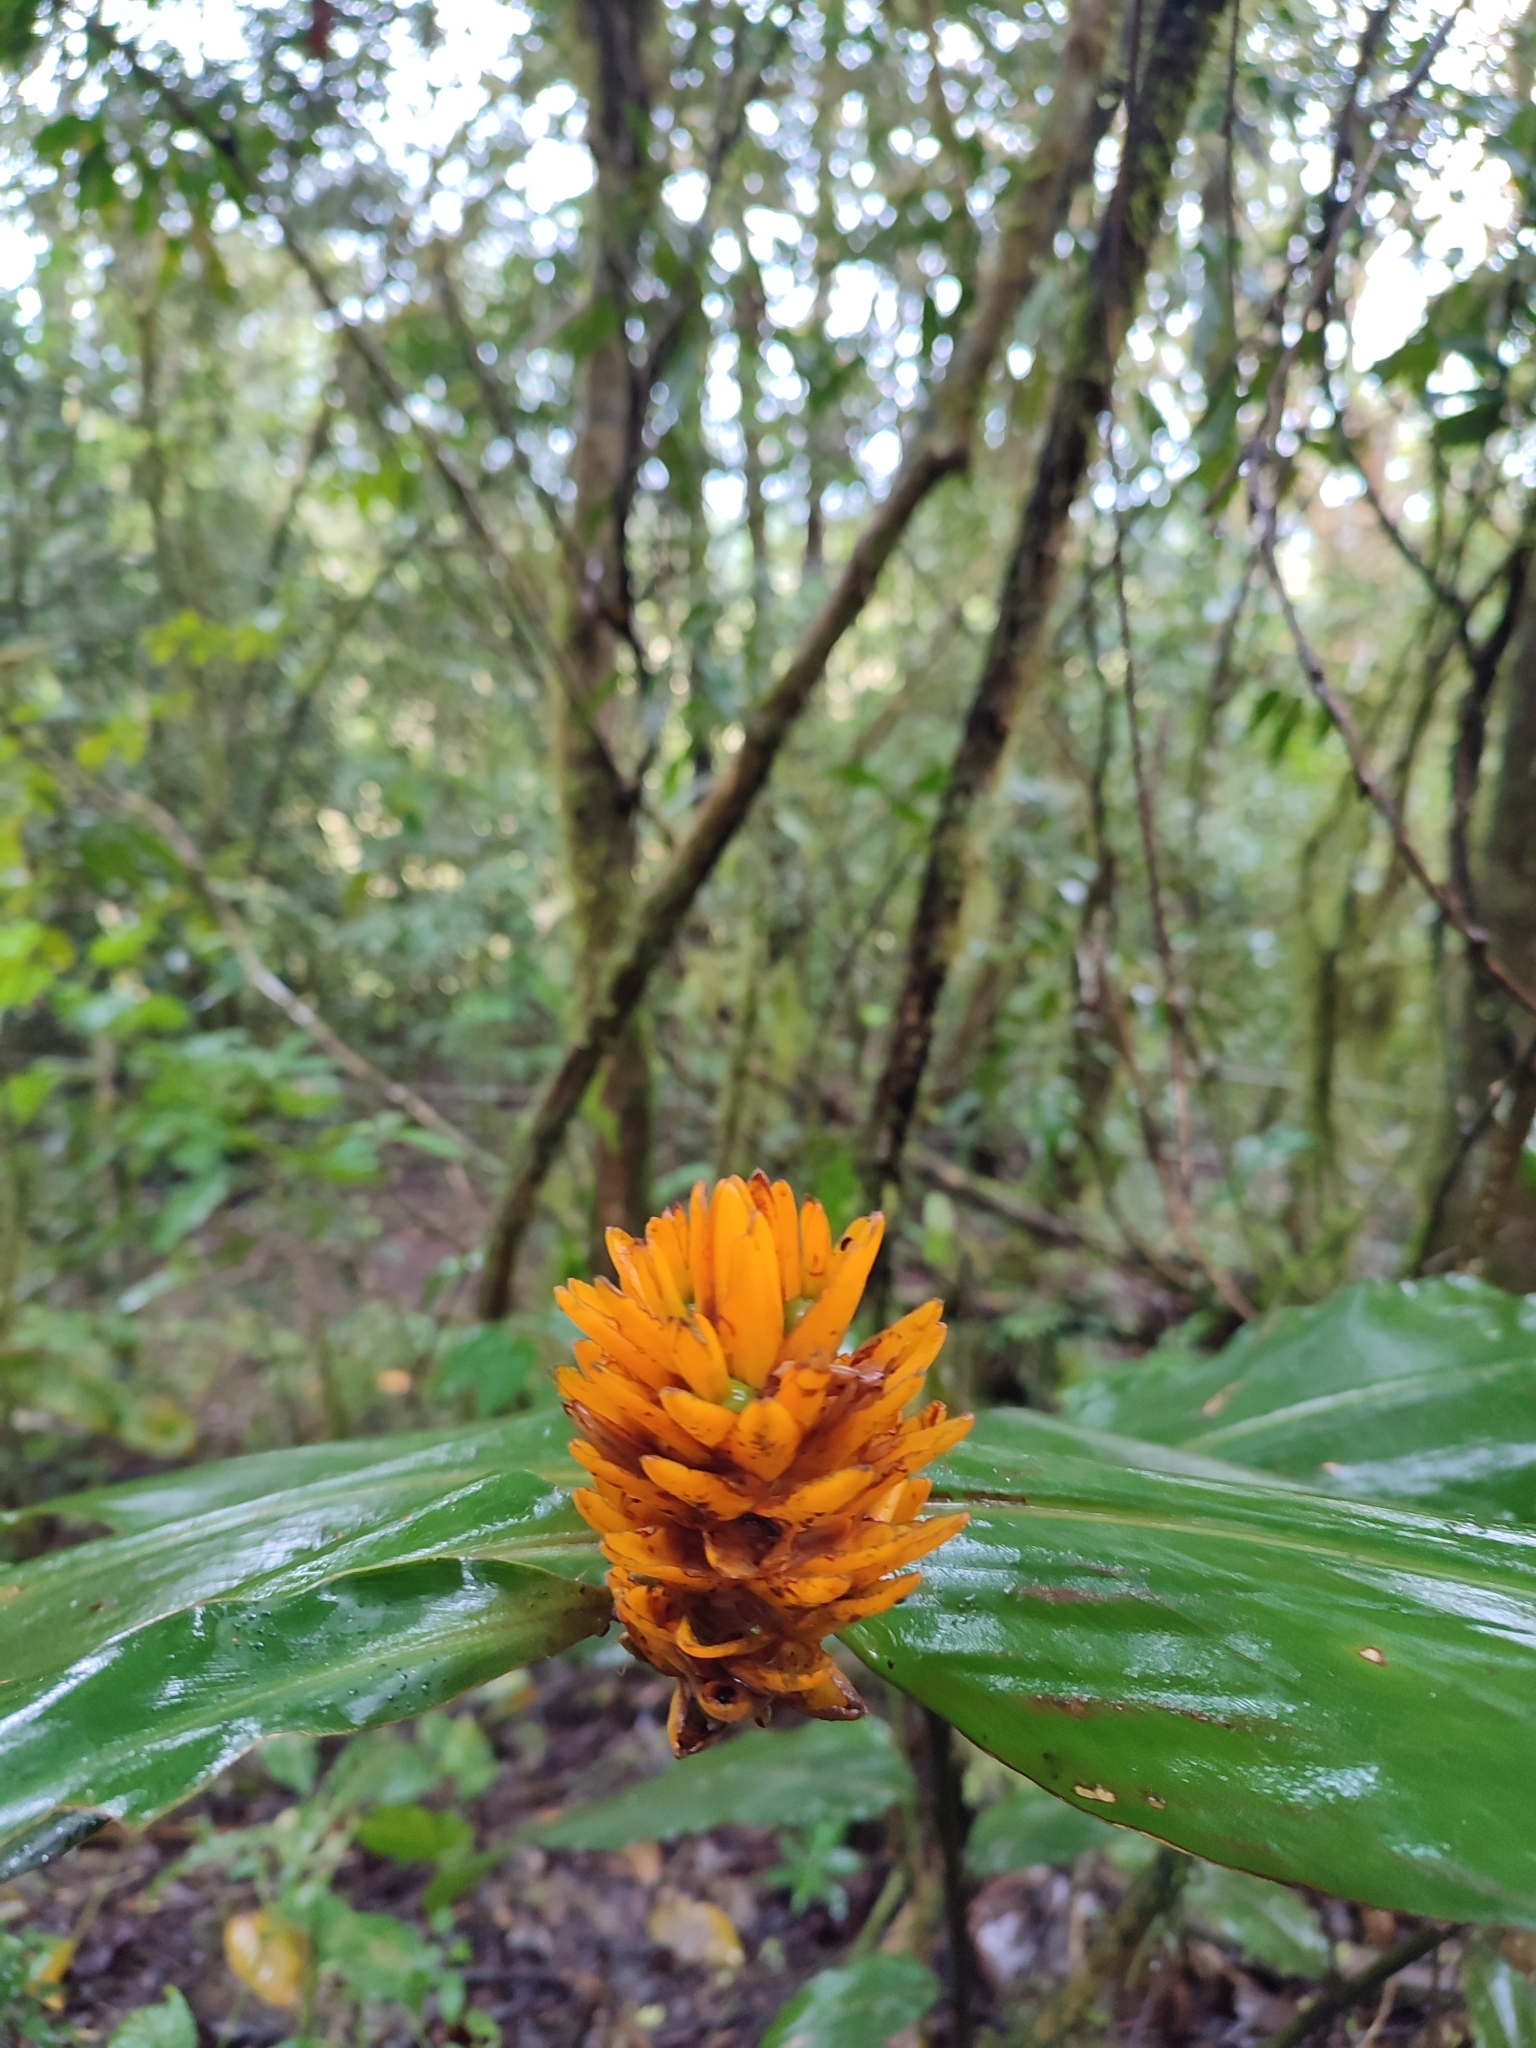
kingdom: Plantae
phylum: Tracheophyta
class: Liliopsida
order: Zingiberales
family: Zingiberaceae
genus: Renealmia
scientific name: Renealmia cernua
